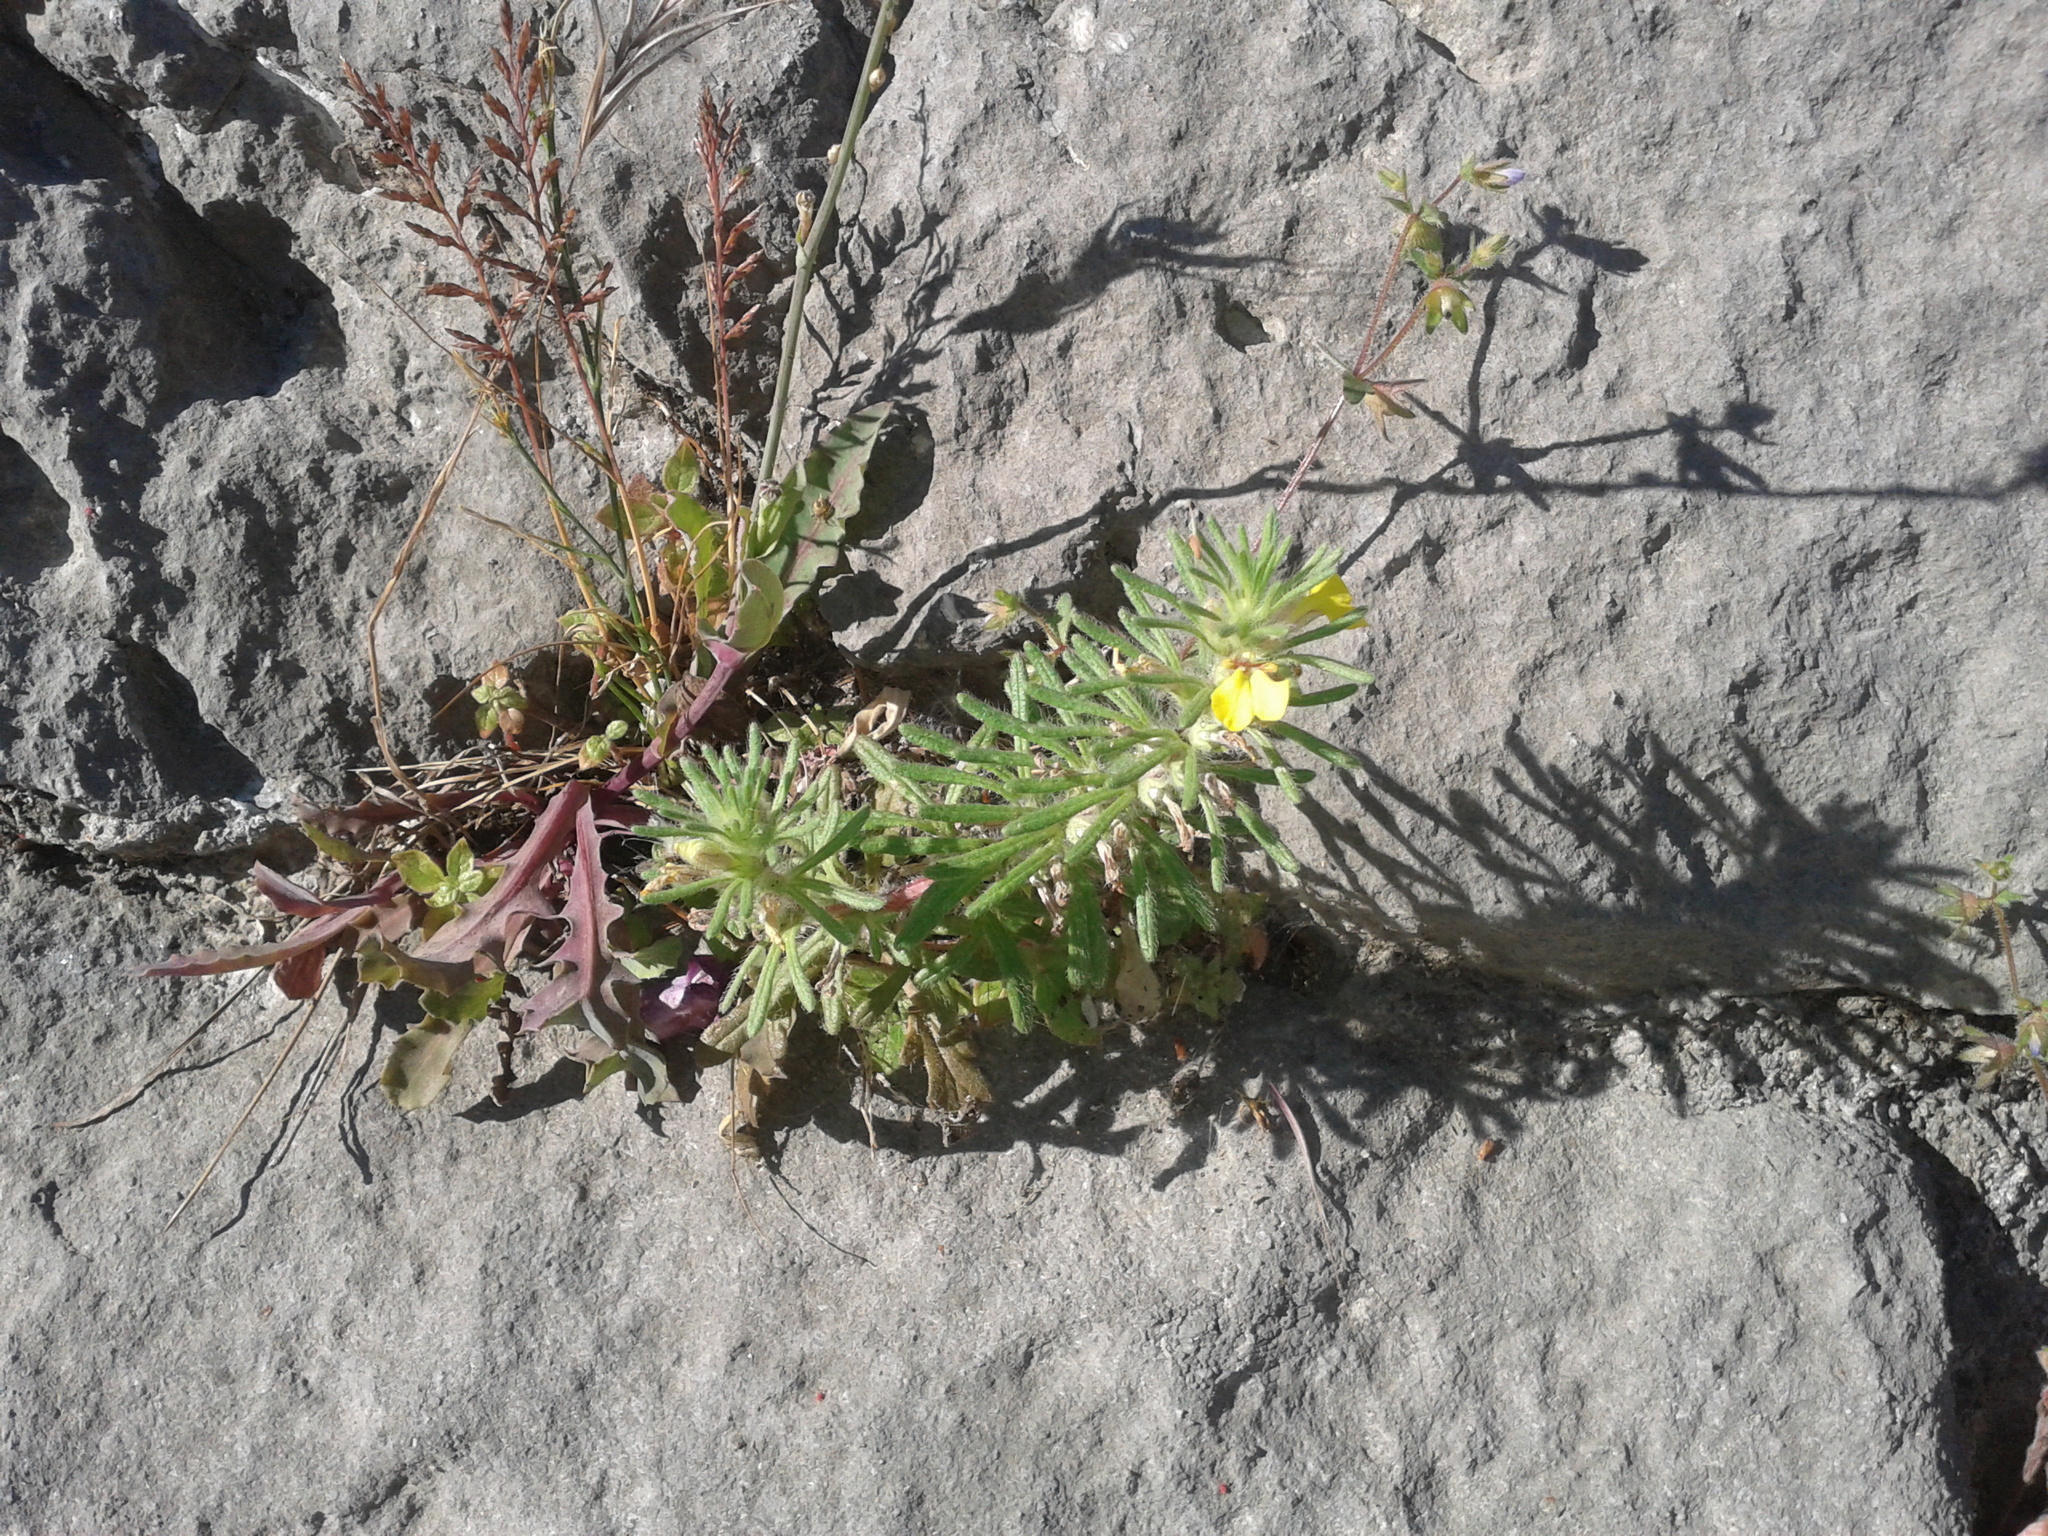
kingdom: Plantae
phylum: Tracheophyta
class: Magnoliopsida
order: Lamiales
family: Lamiaceae
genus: Ajuga
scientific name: Ajuga chamaepitys
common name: Ground-pine
